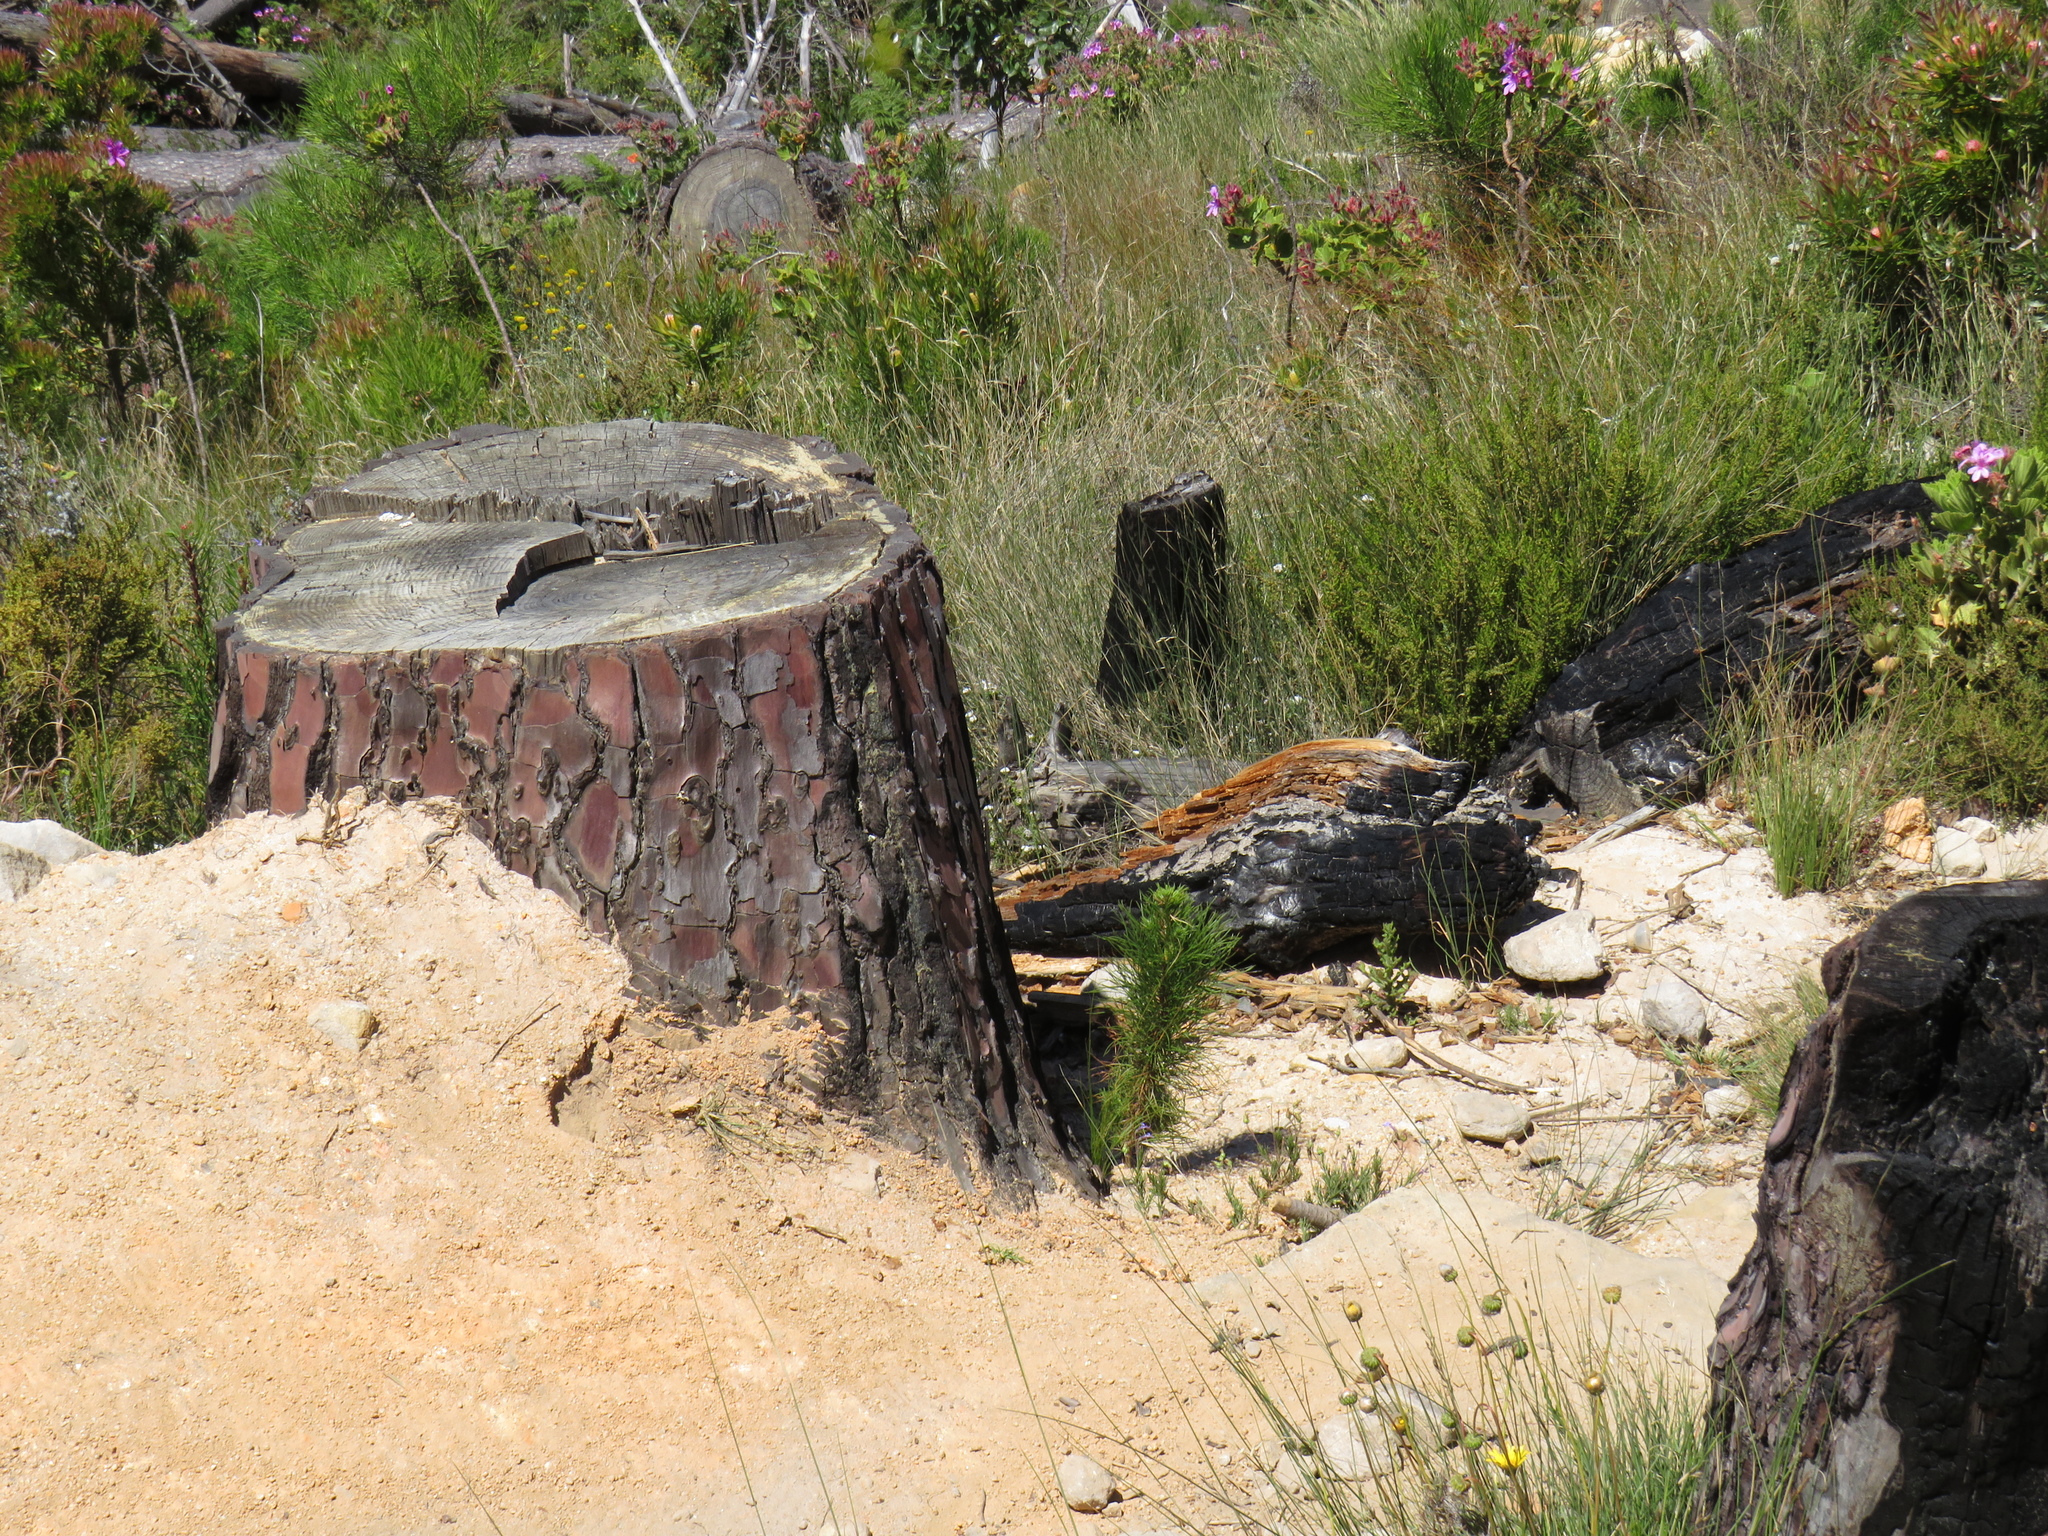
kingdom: Plantae
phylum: Tracheophyta
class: Pinopsida
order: Pinales
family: Pinaceae
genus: Pinus
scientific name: Pinus radiata
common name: Monterey pine
